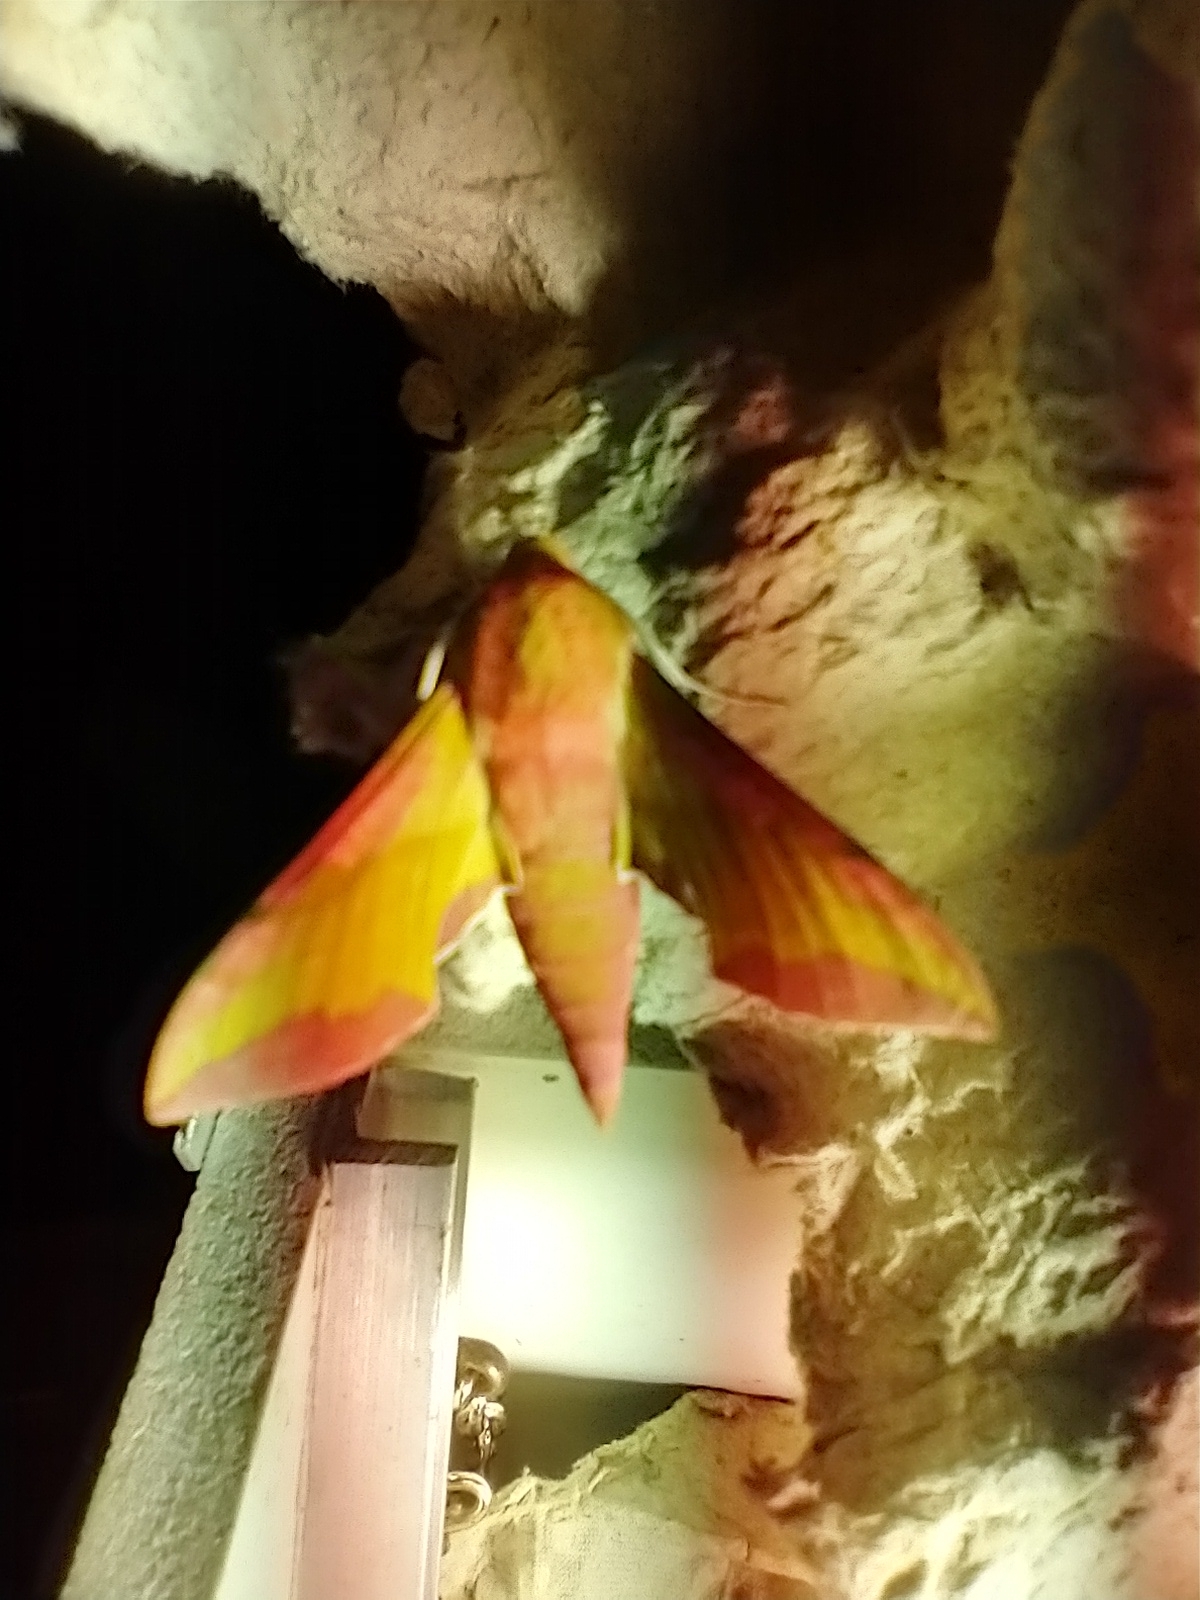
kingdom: Animalia
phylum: Arthropoda
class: Insecta
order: Lepidoptera
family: Sphingidae
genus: Deilephila
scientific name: Deilephila porcellus
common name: Small elephant hawk-moth
